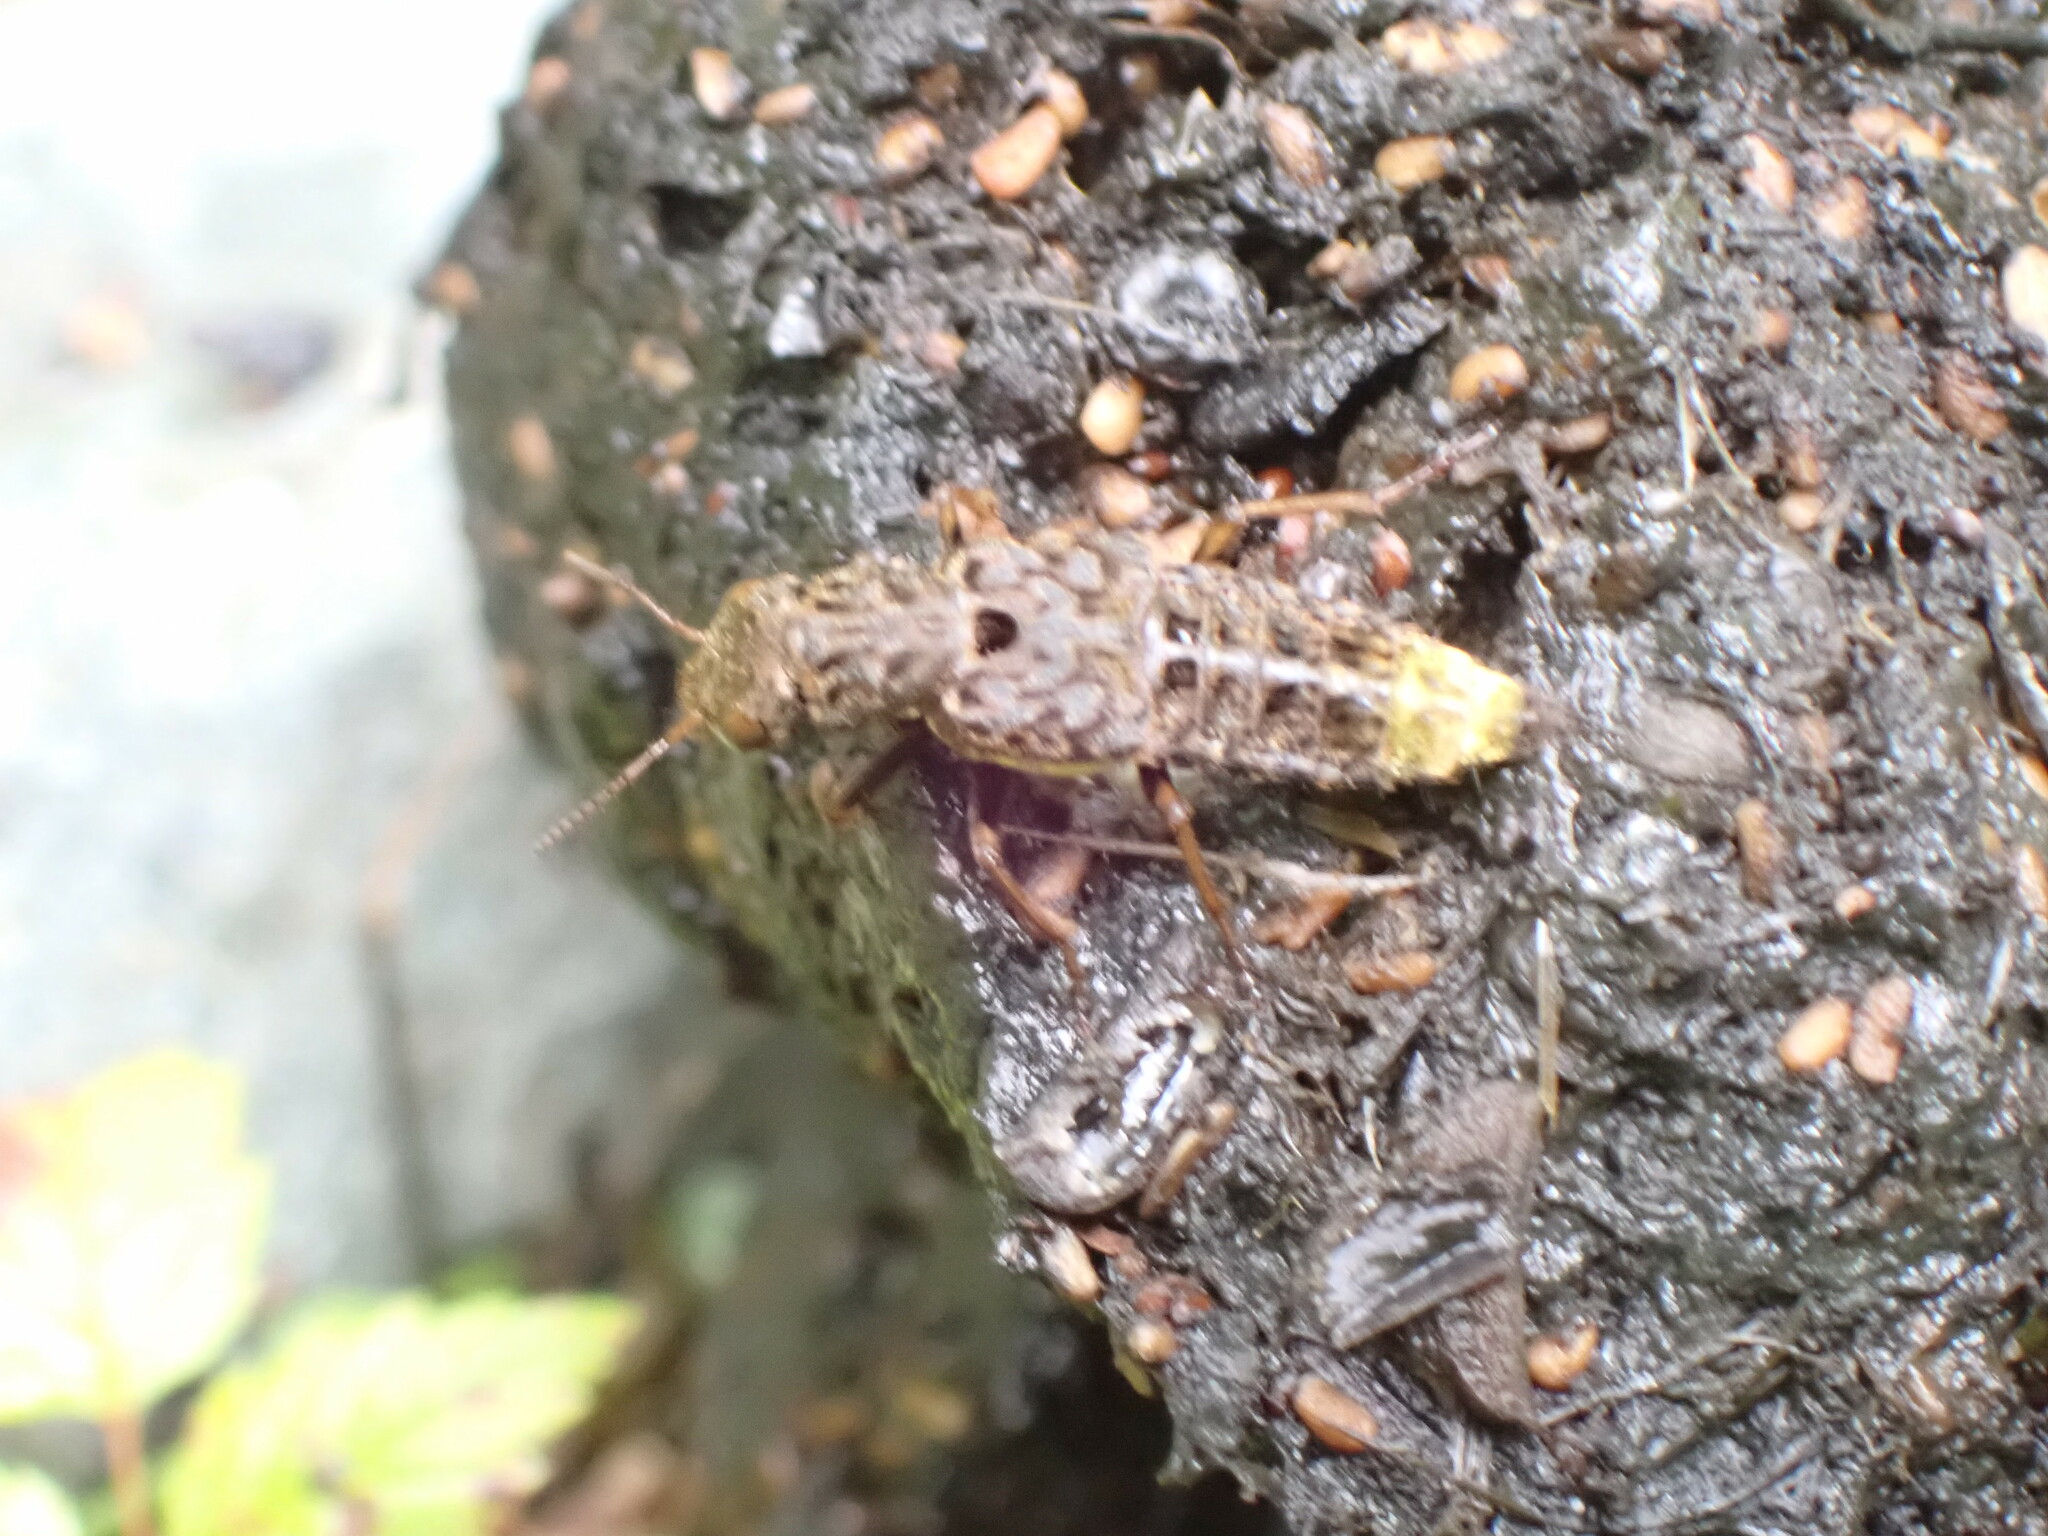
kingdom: Animalia
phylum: Arthropoda
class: Insecta
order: Coleoptera
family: Staphylinidae
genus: Ontholestes
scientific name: Ontholestes cingulatus
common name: Gold-and-brown rove beetle
